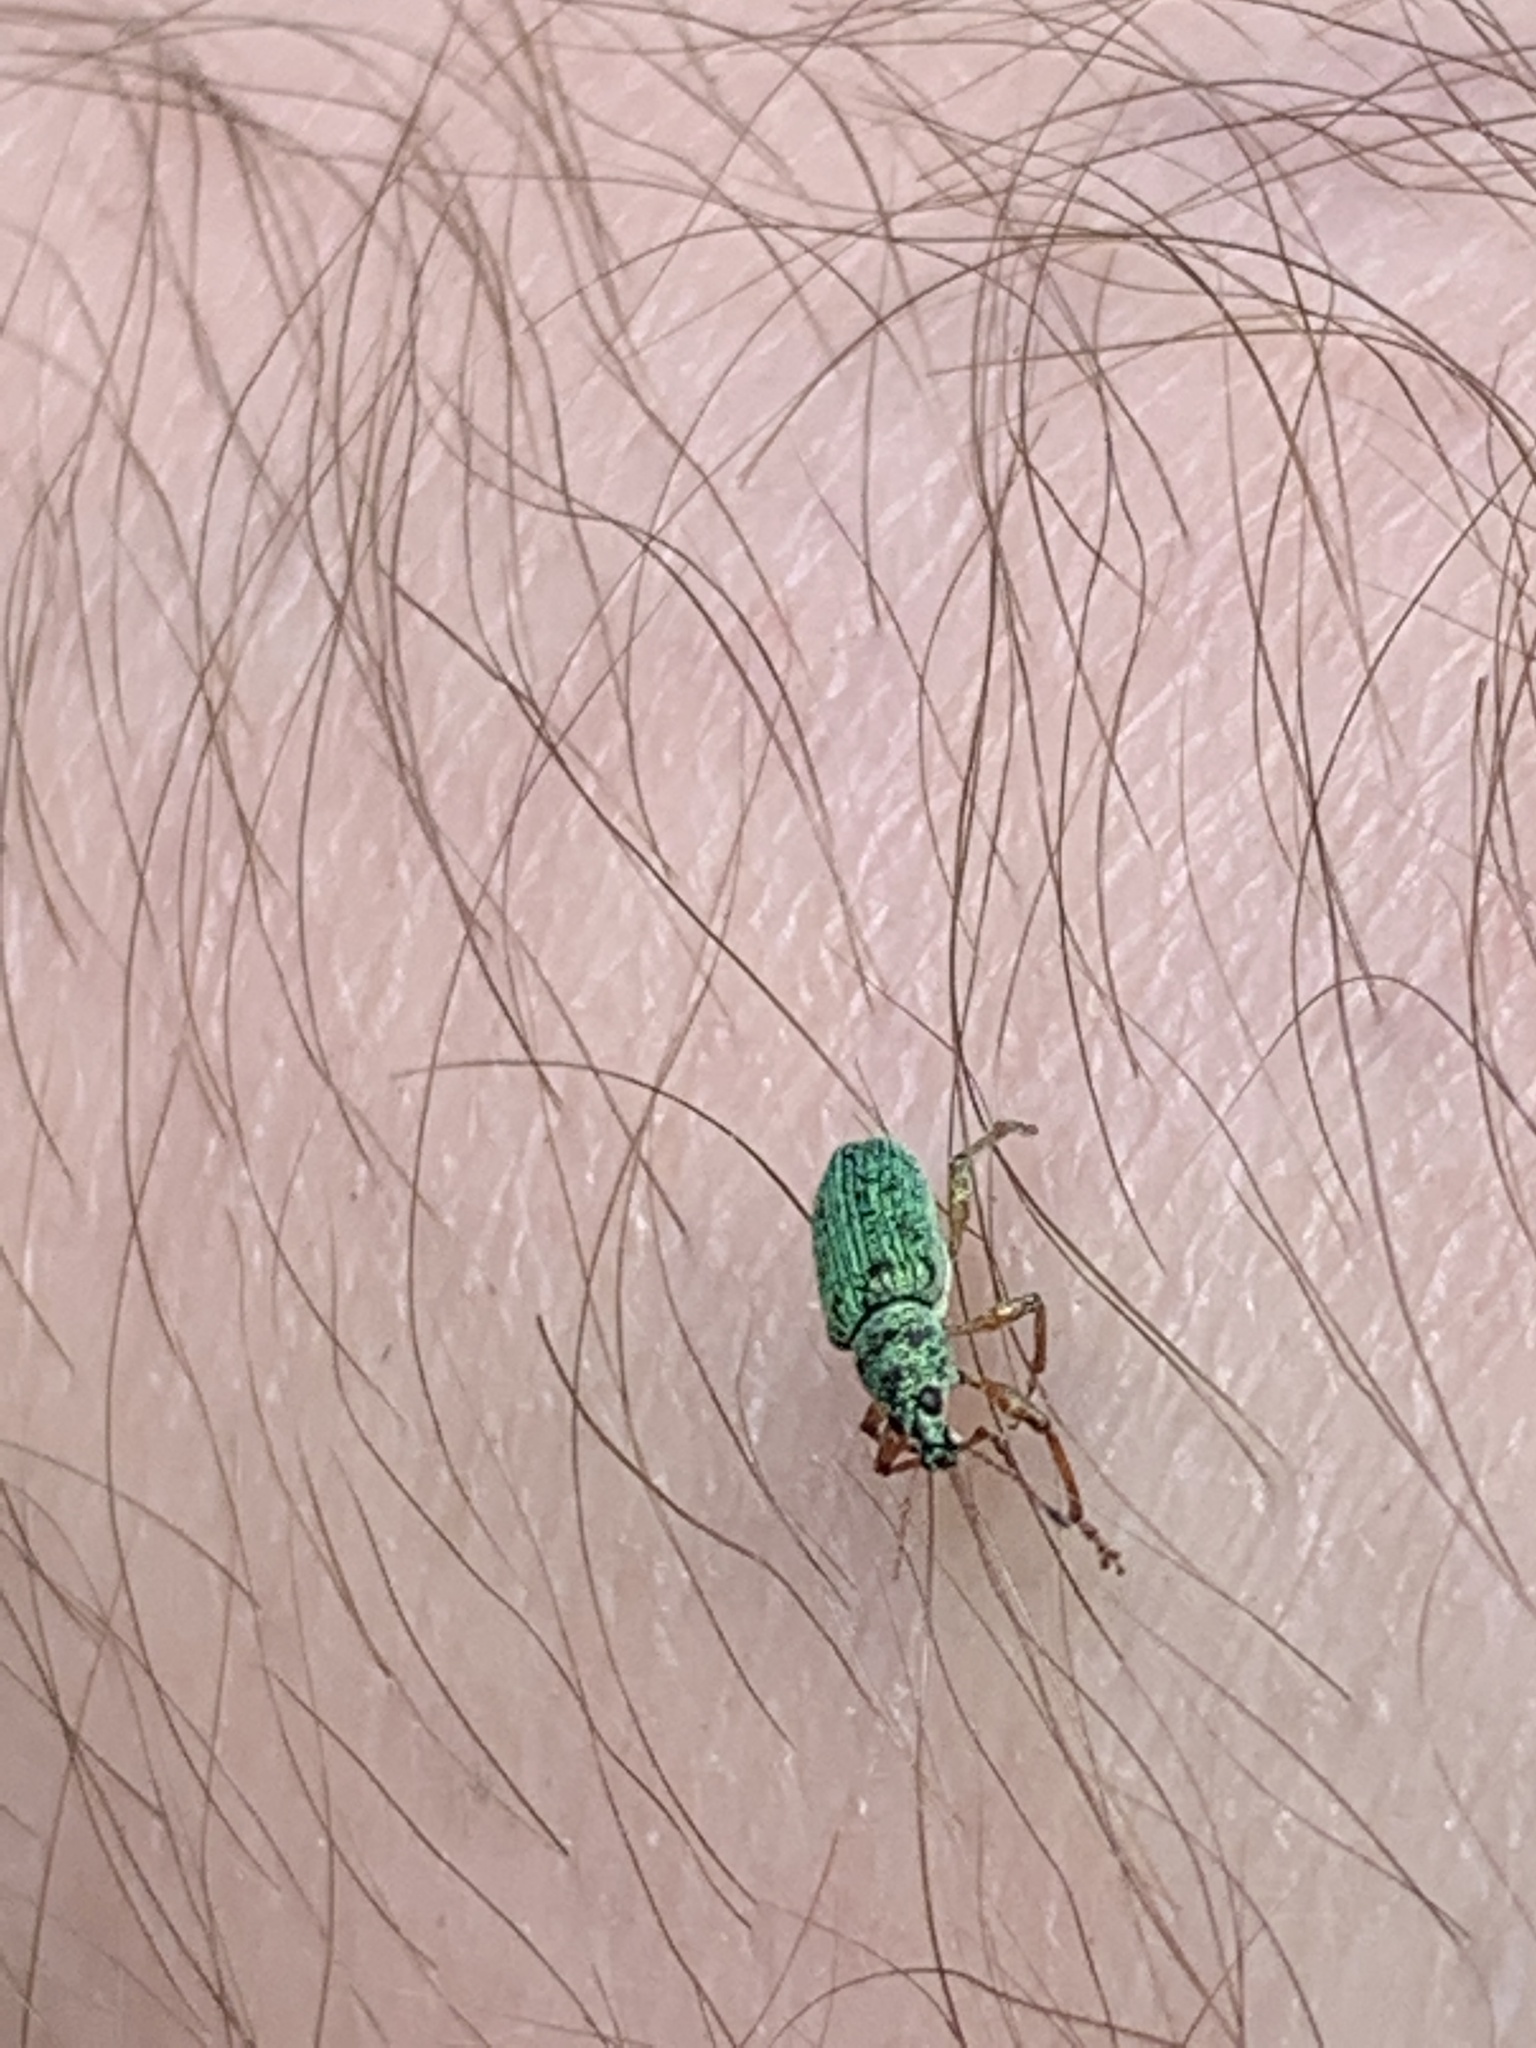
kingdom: Animalia
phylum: Arthropoda
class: Insecta
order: Coleoptera
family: Curculionidae
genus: Polydrusus
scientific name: Polydrusus formosus
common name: Weevil
